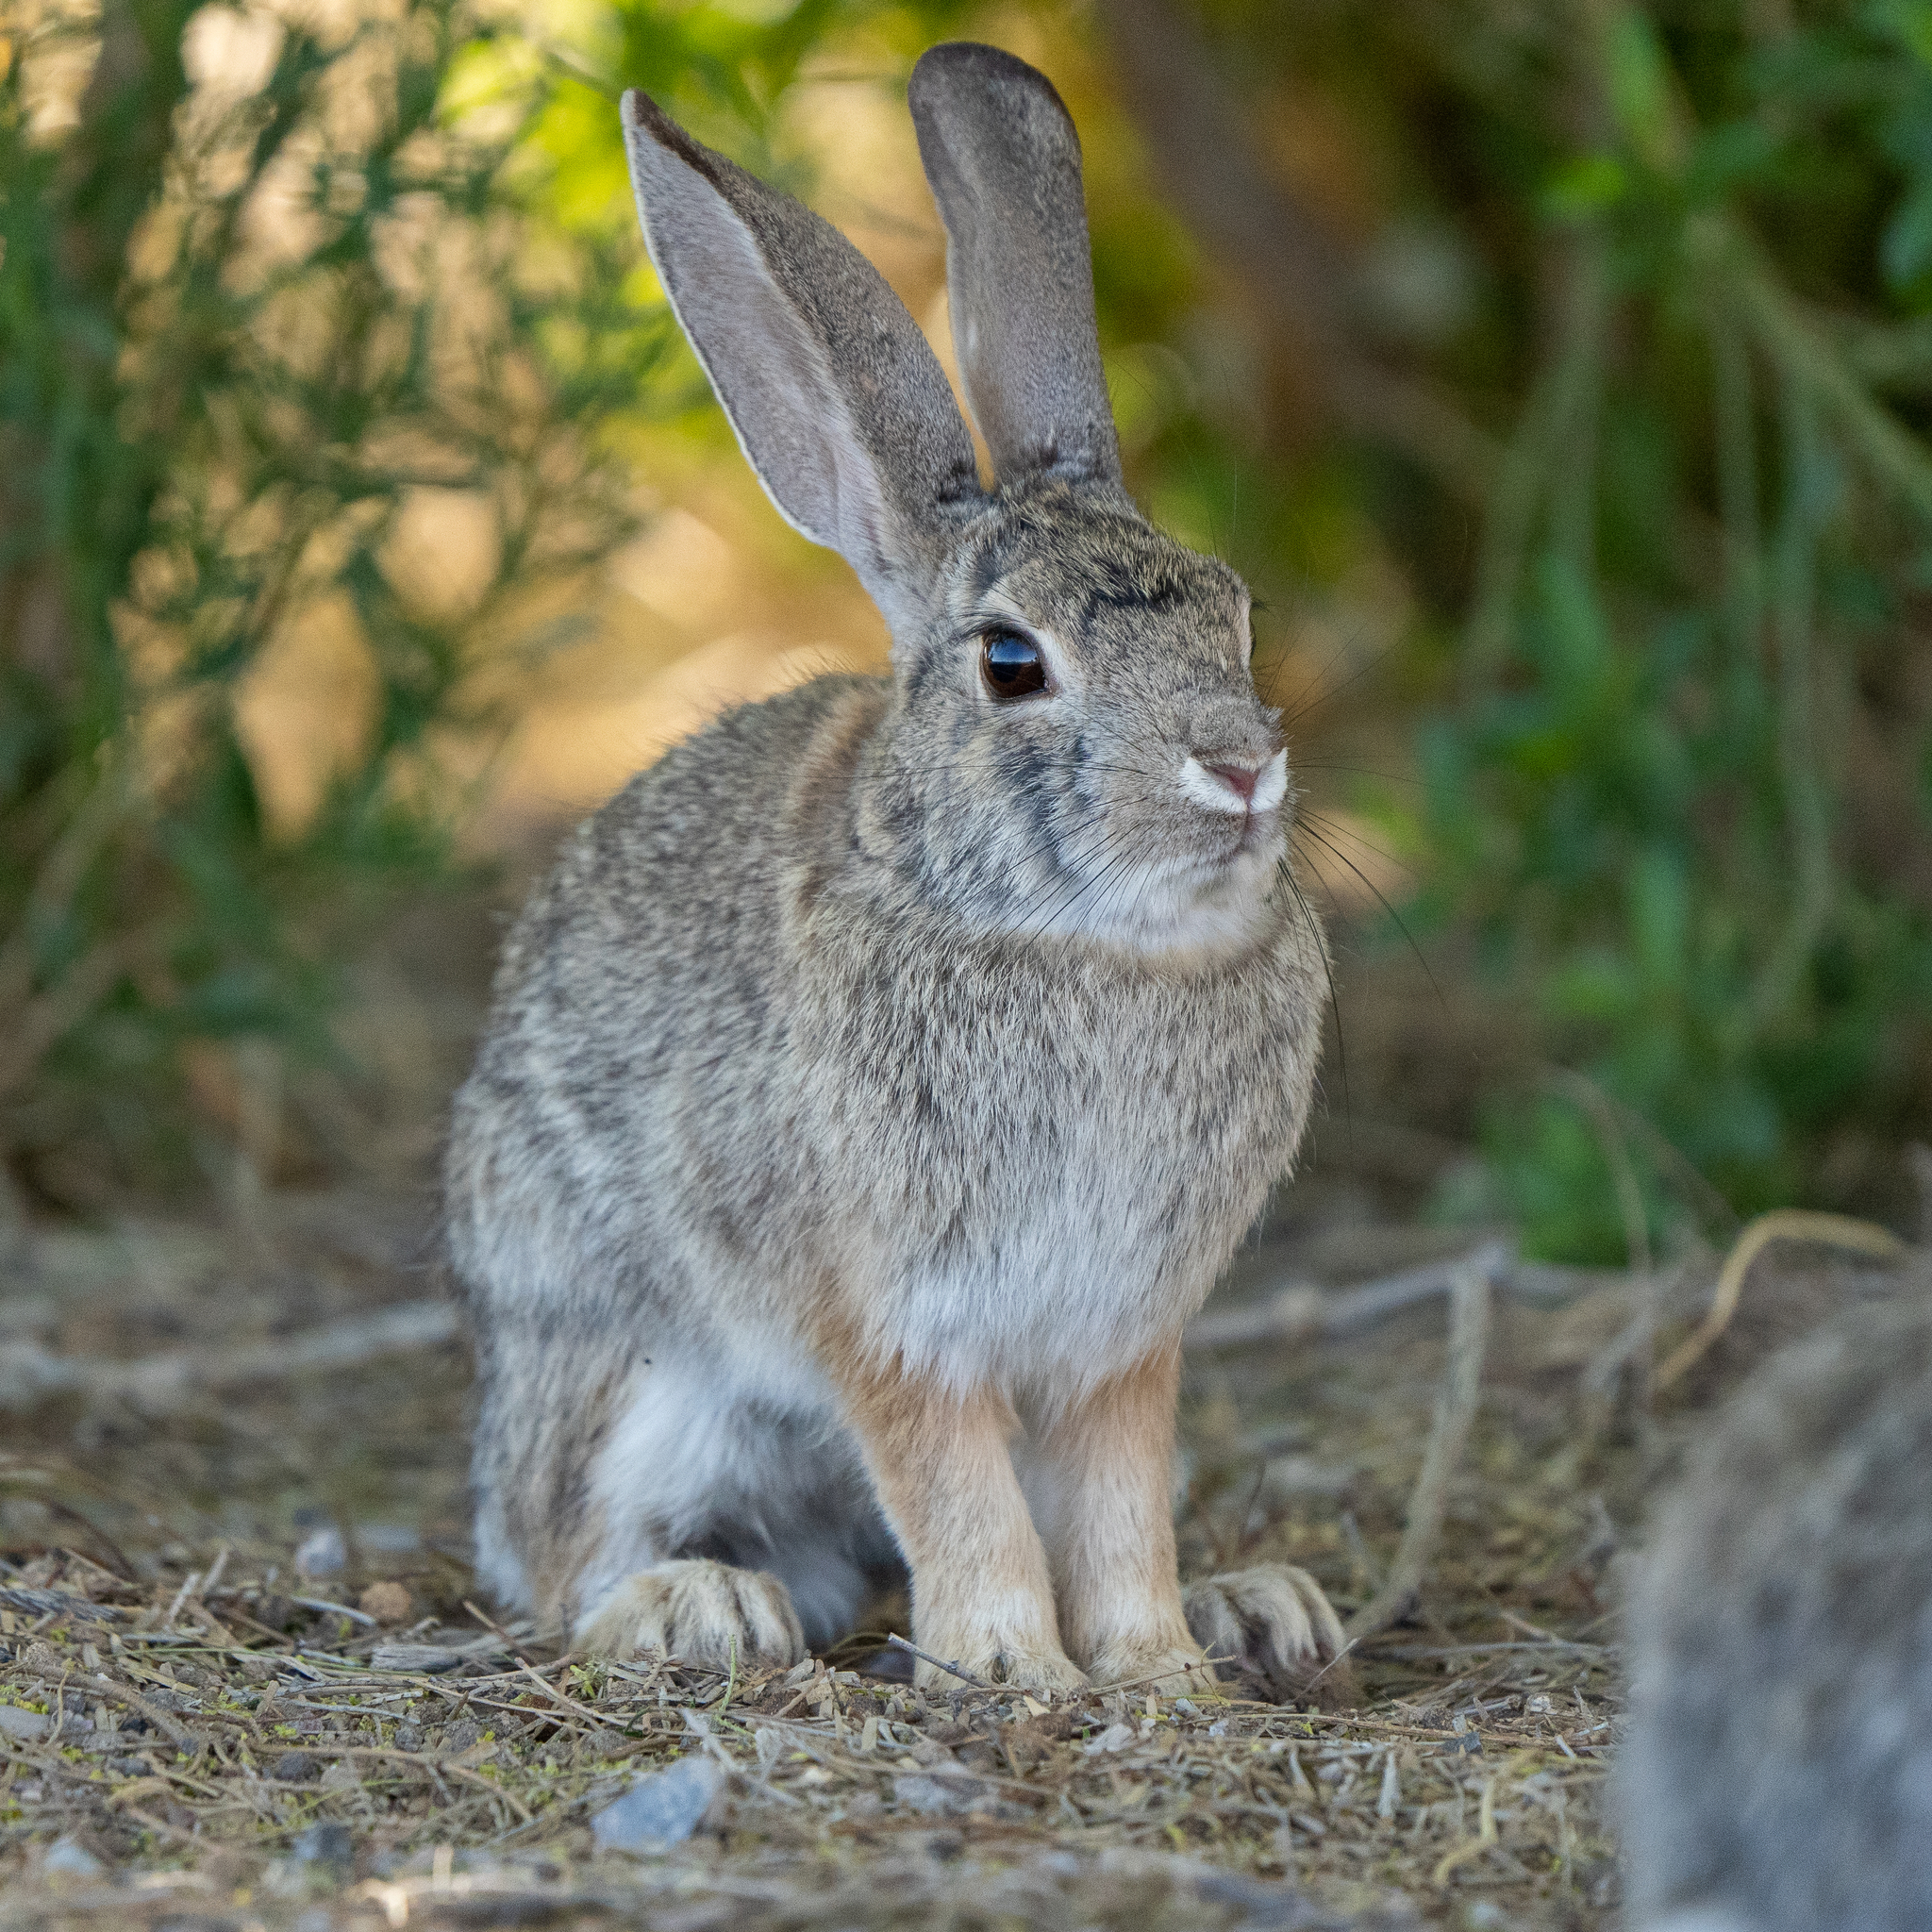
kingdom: Animalia
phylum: Chordata
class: Mammalia
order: Lagomorpha
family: Leporidae
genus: Sylvilagus
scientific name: Sylvilagus audubonii
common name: Desert cottontail
